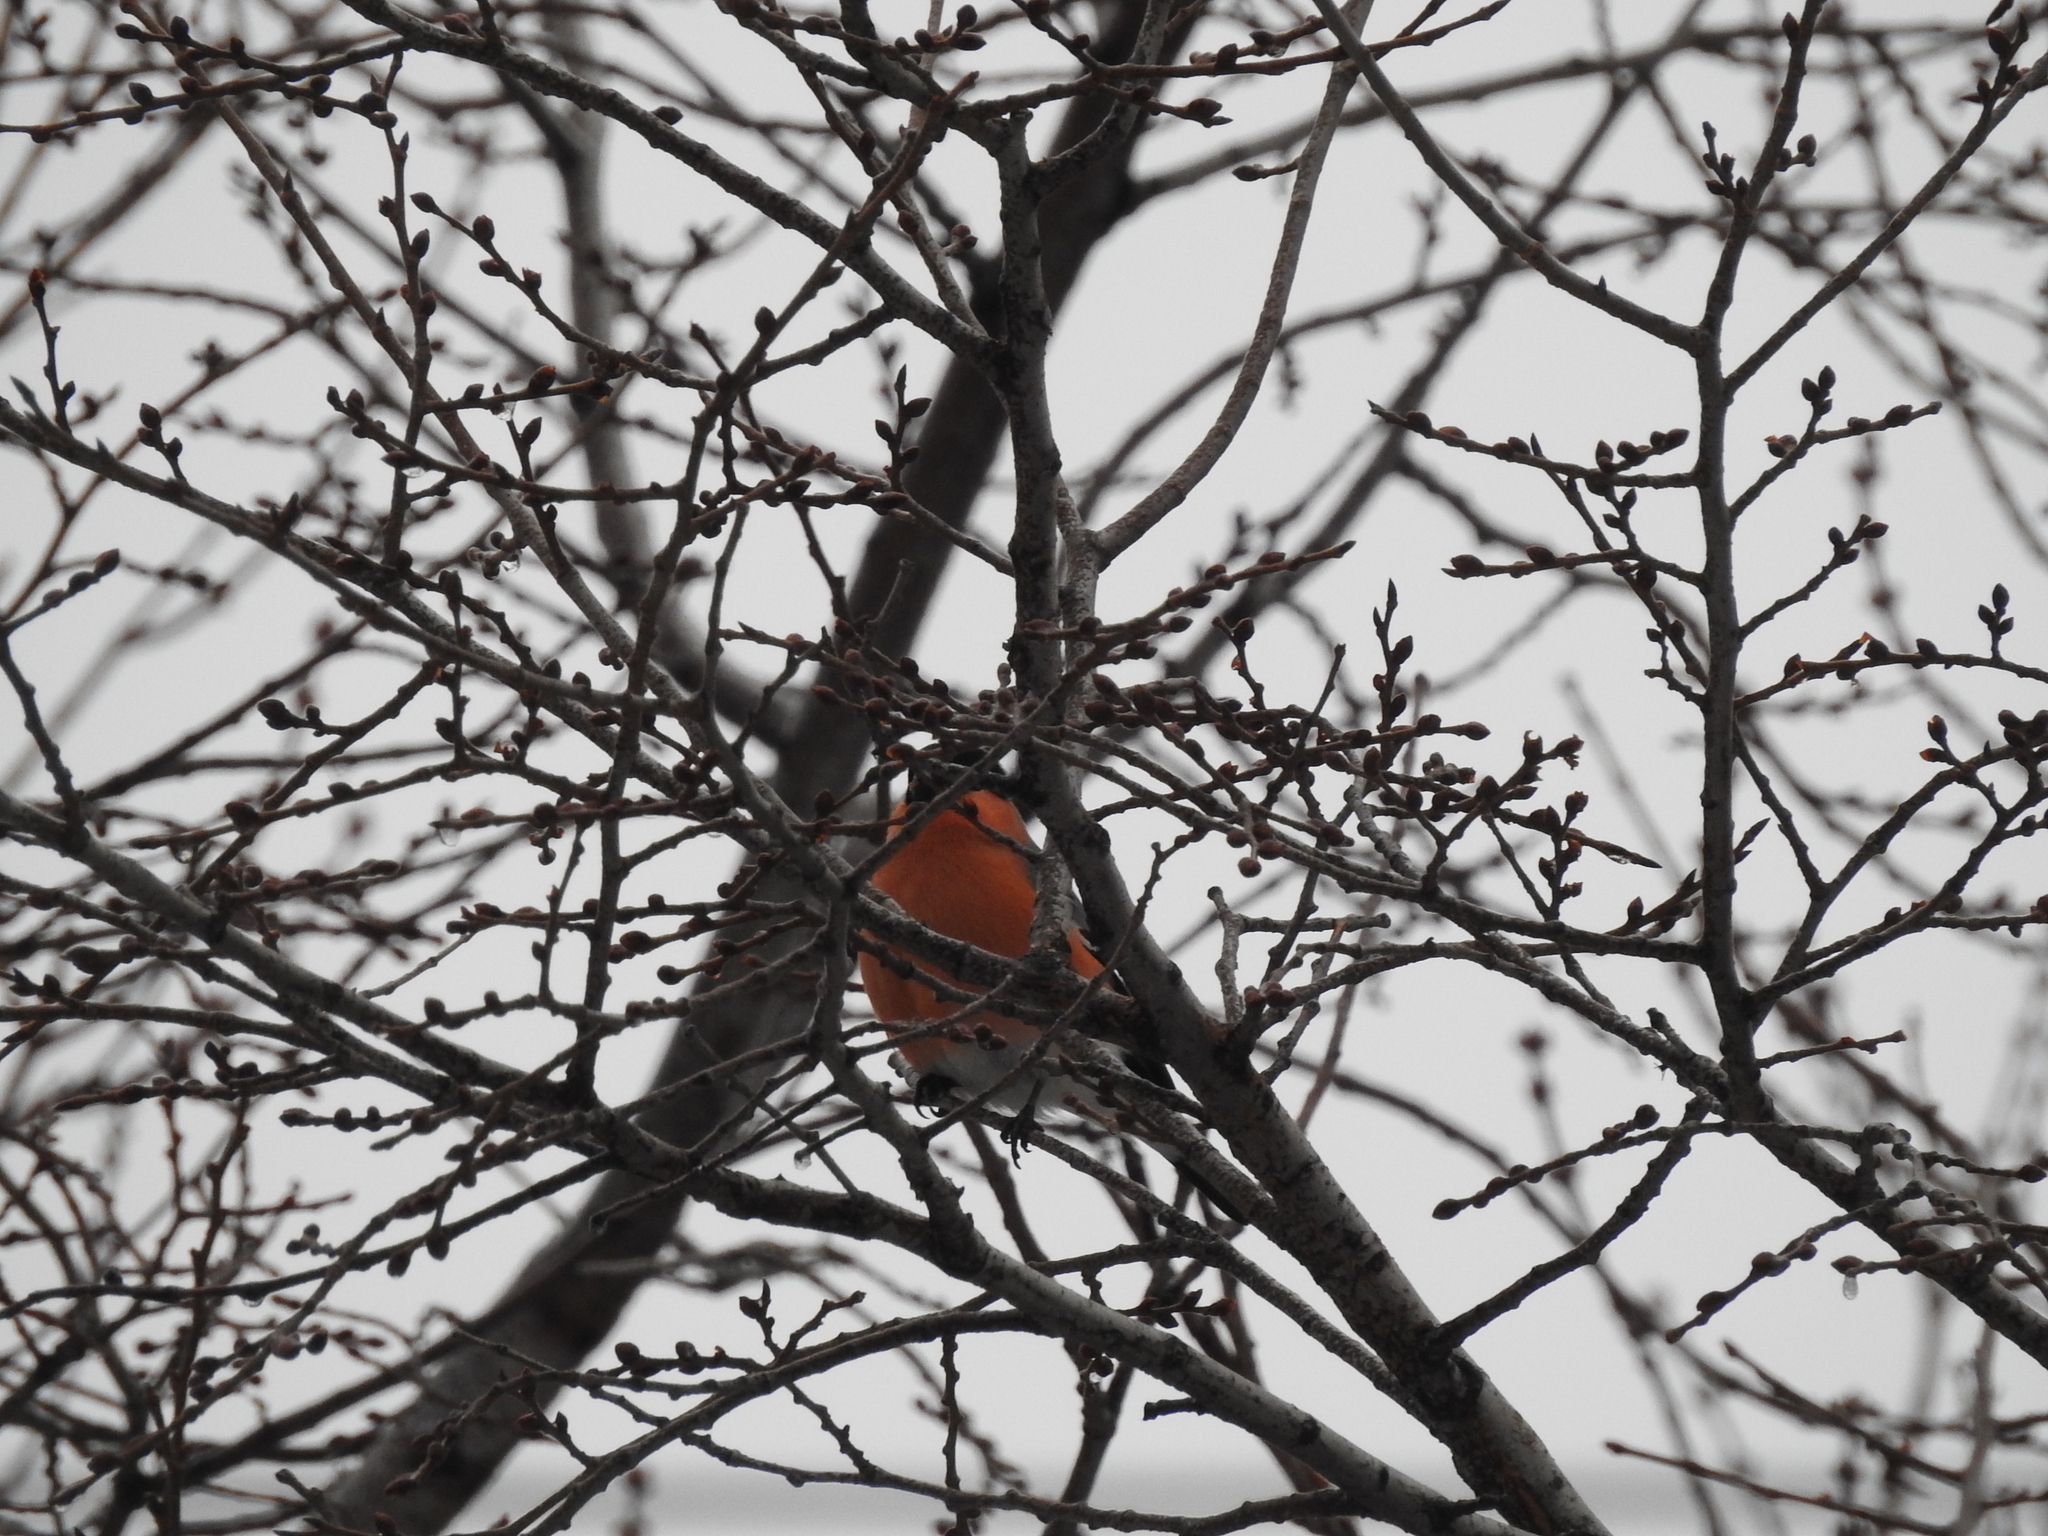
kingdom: Animalia
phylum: Chordata
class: Aves
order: Passeriformes
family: Fringillidae
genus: Pyrrhula
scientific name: Pyrrhula pyrrhula
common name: Eurasian bullfinch
